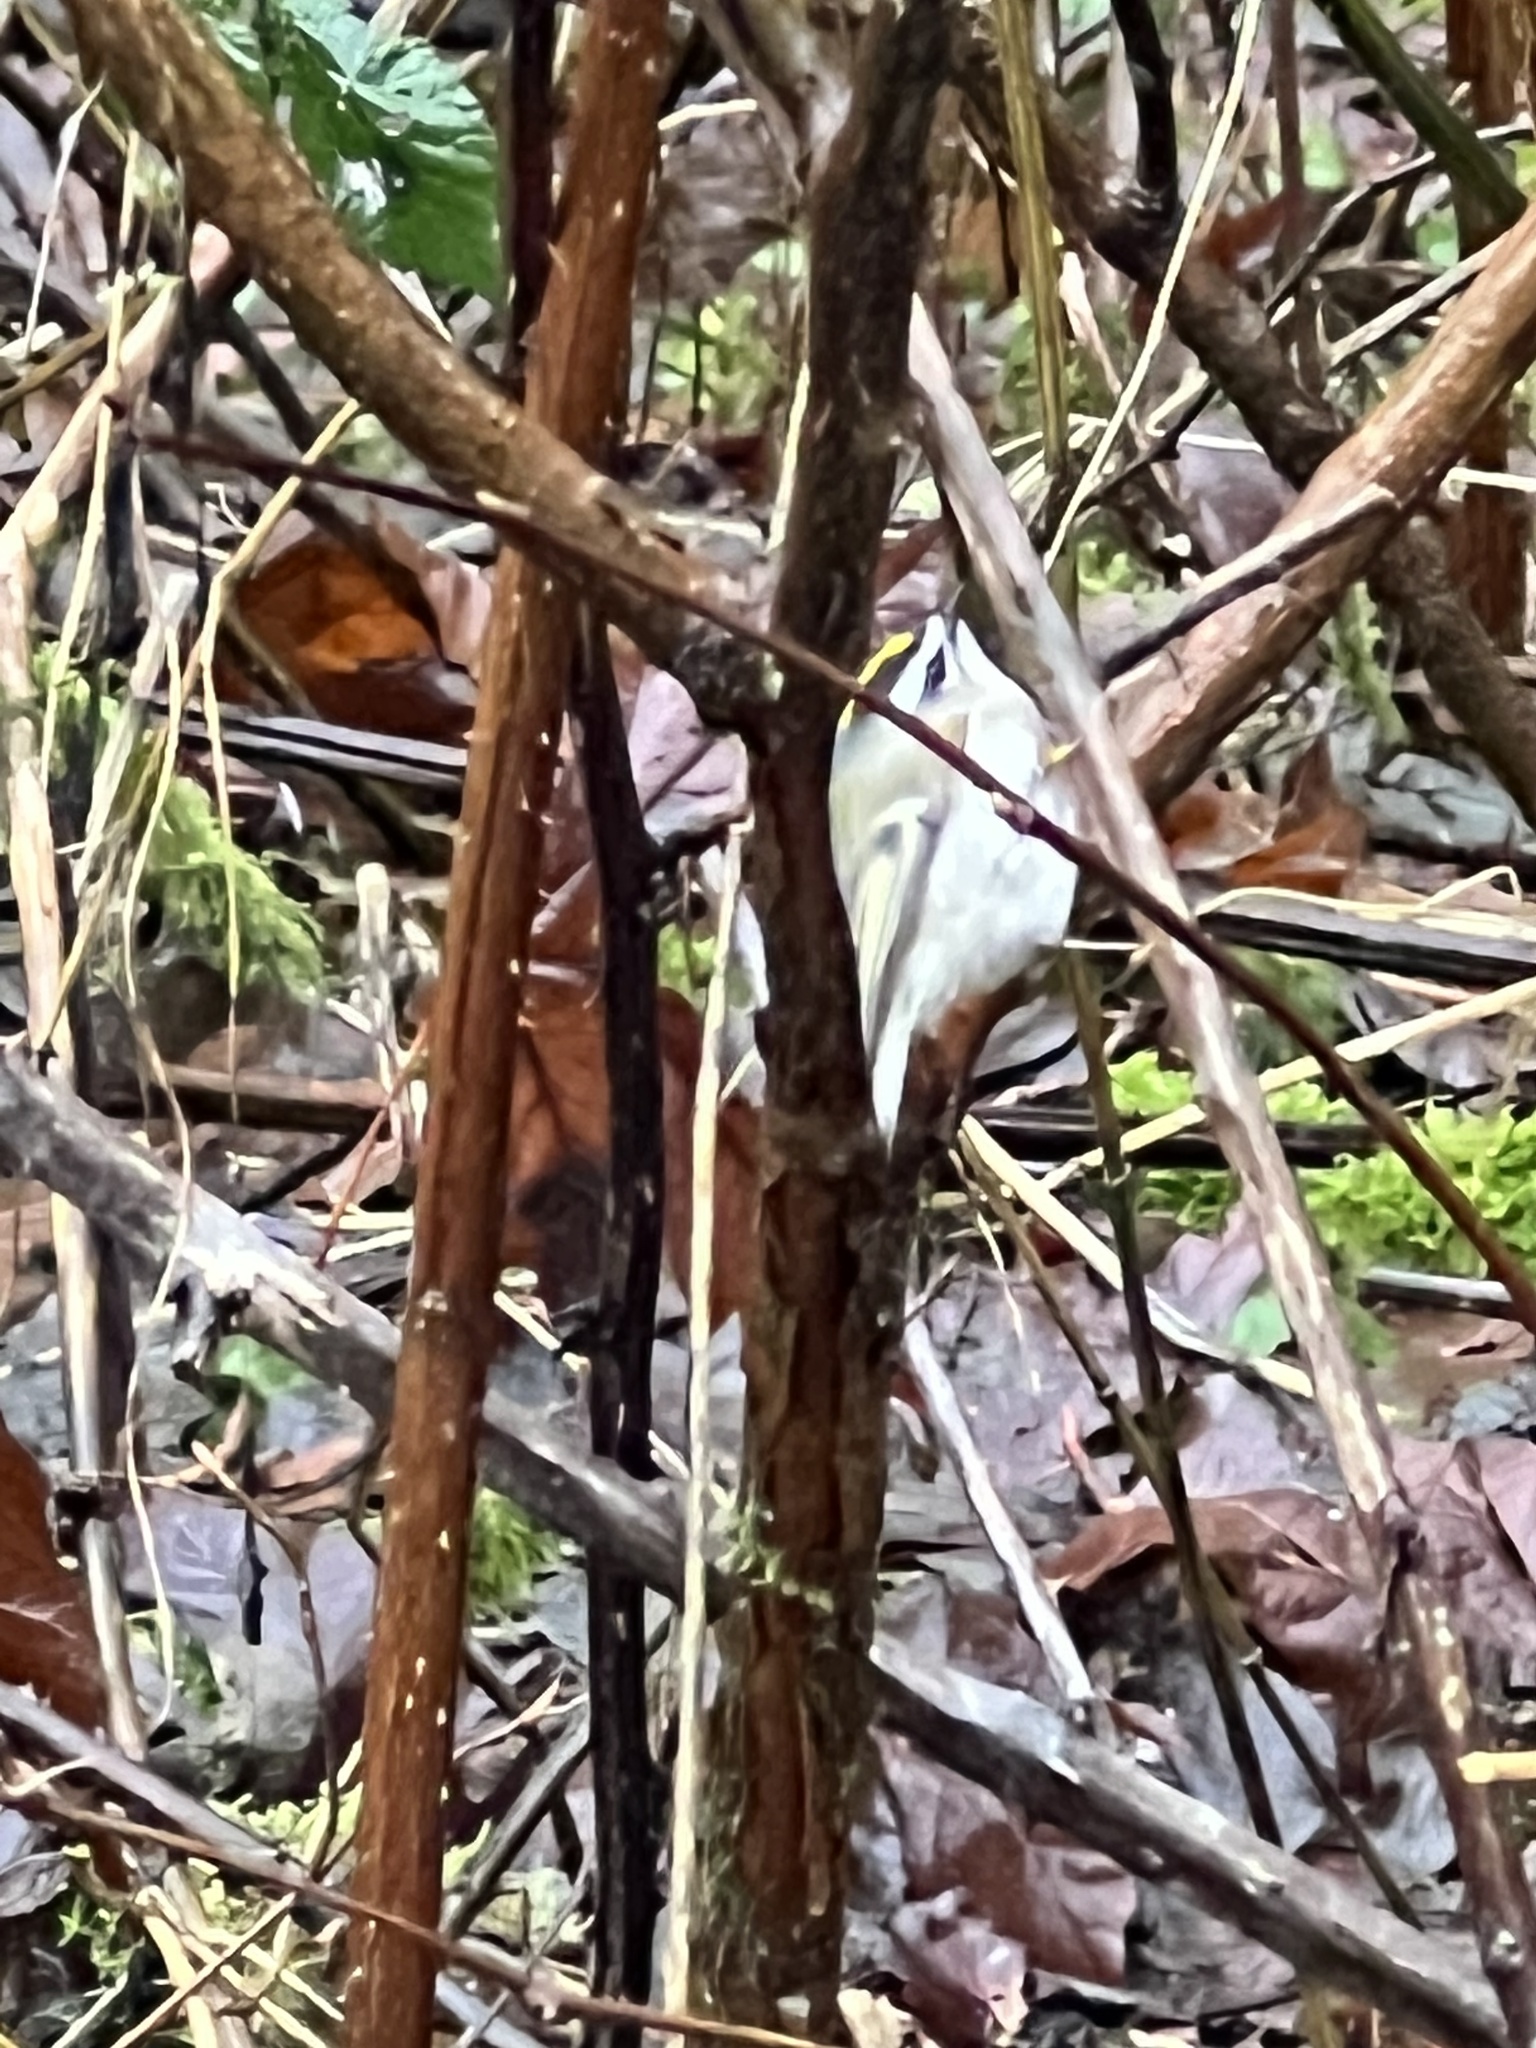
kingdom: Animalia
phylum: Chordata
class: Aves
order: Passeriformes
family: Regulidae
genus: Regulus
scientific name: Regulus satrapa
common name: Golden-crowned kinglet
